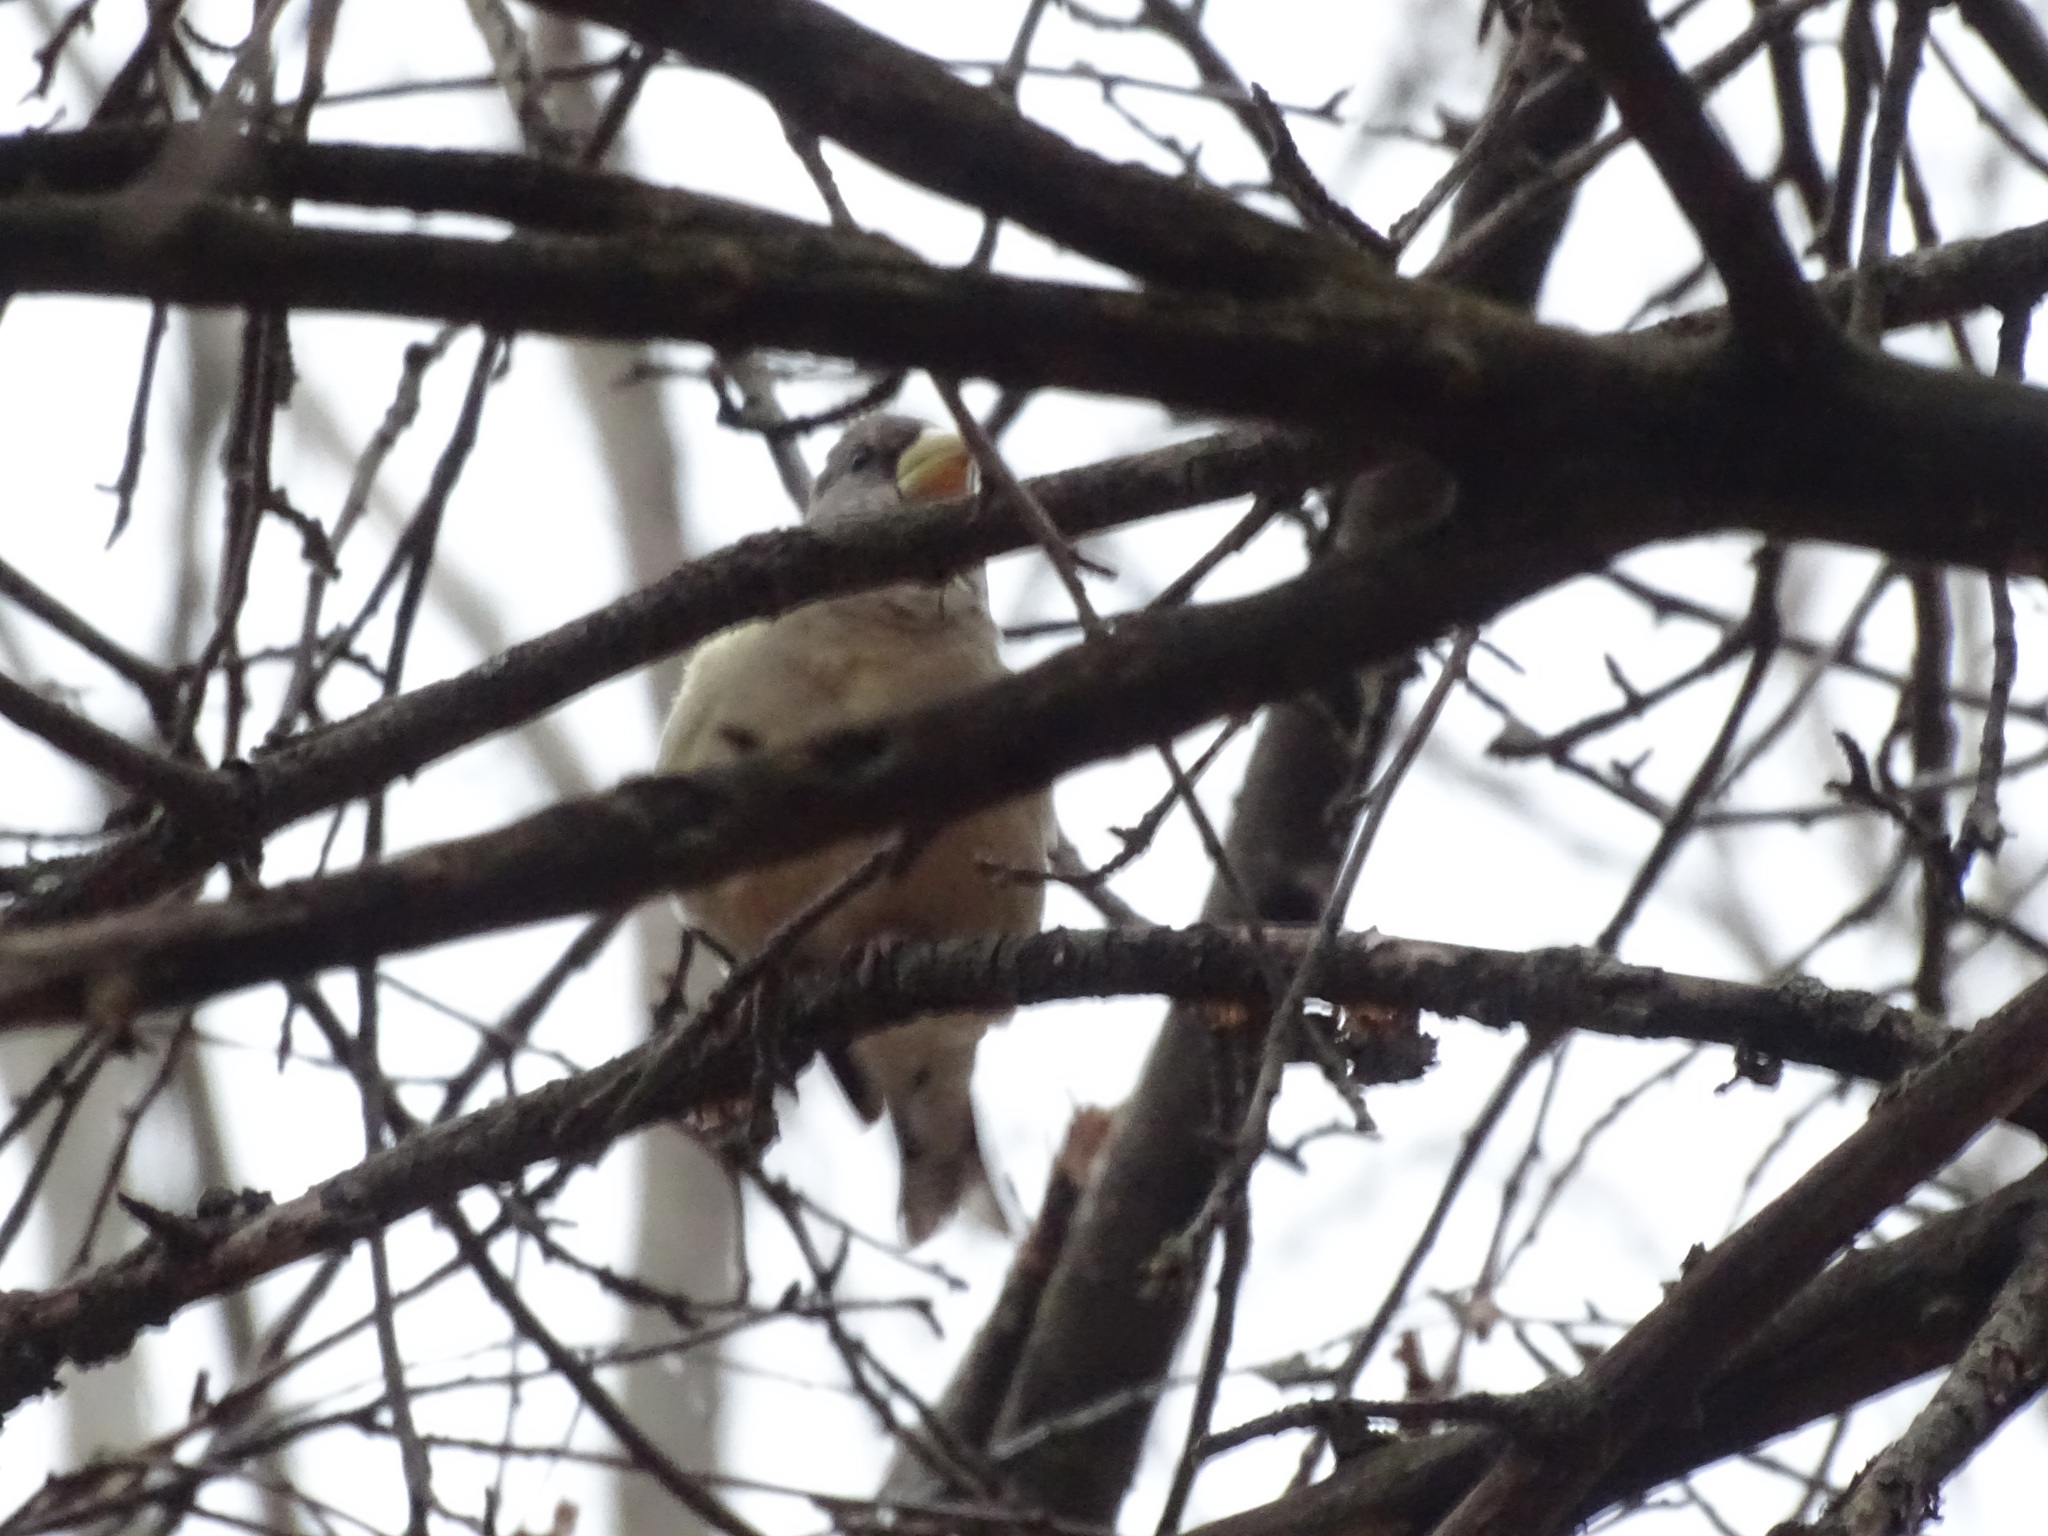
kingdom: Animalia
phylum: Chordata
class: Aves
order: Passeriformes
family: Fringillidae
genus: Hesperiphona
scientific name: Hesperiphona vespertina
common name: Evening grosbeak
